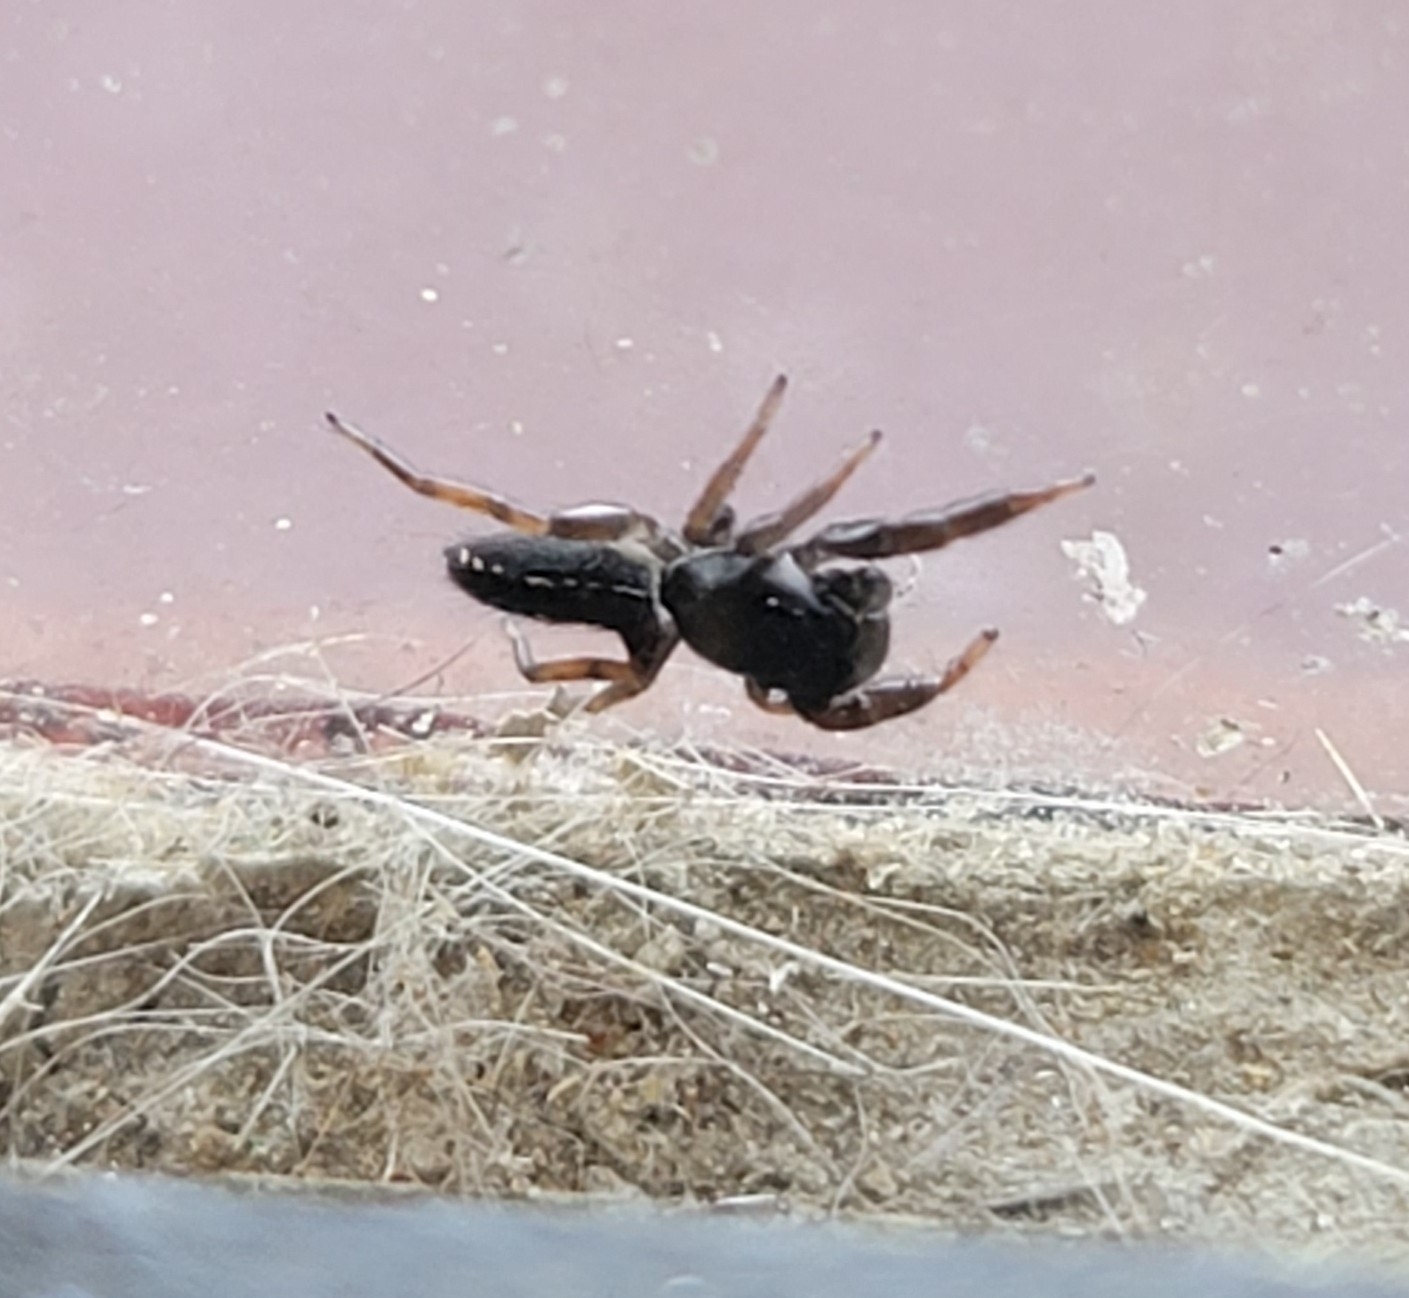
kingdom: Animalia
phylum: Arthropoda
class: Arachnida
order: Araneae
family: Salticidae
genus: Metacyrba
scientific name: Metacyrba taeniola
